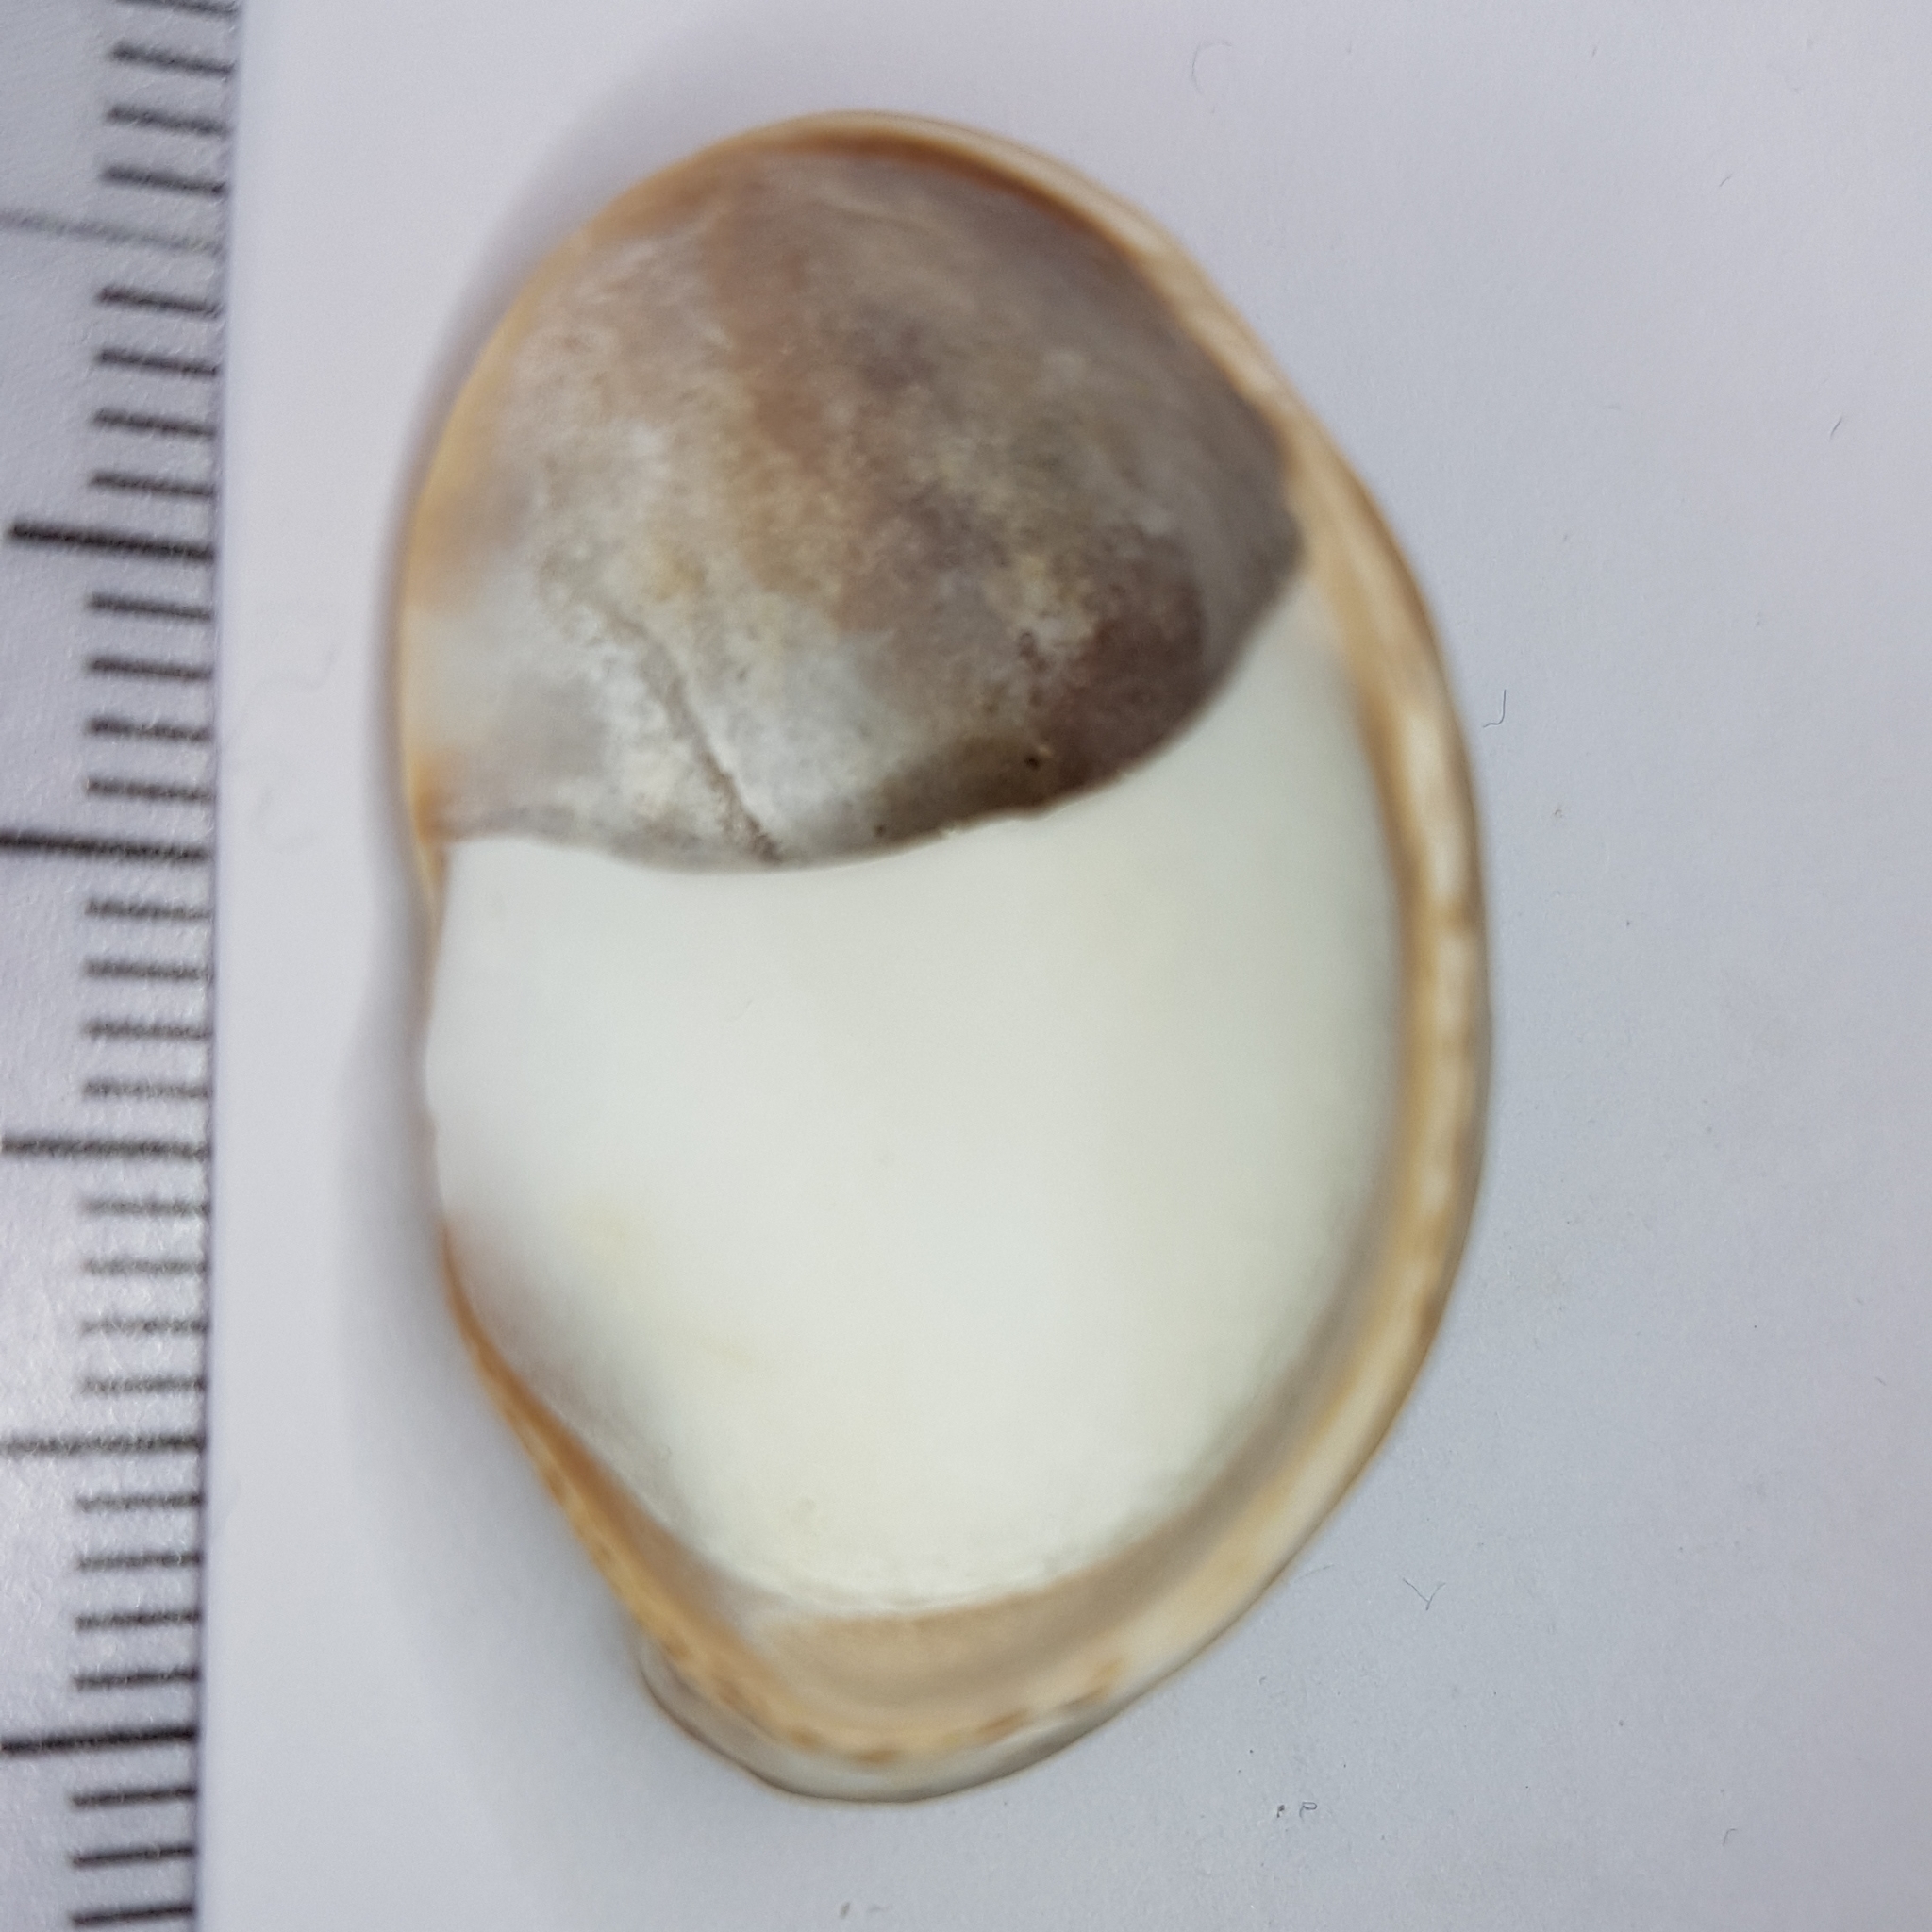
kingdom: Animalia
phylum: Mollusca
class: Gastropoda
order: Littorinimorpha
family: Calyptraeidae
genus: Crepidula
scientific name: Crepidula fornicata
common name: Slipper limpet
